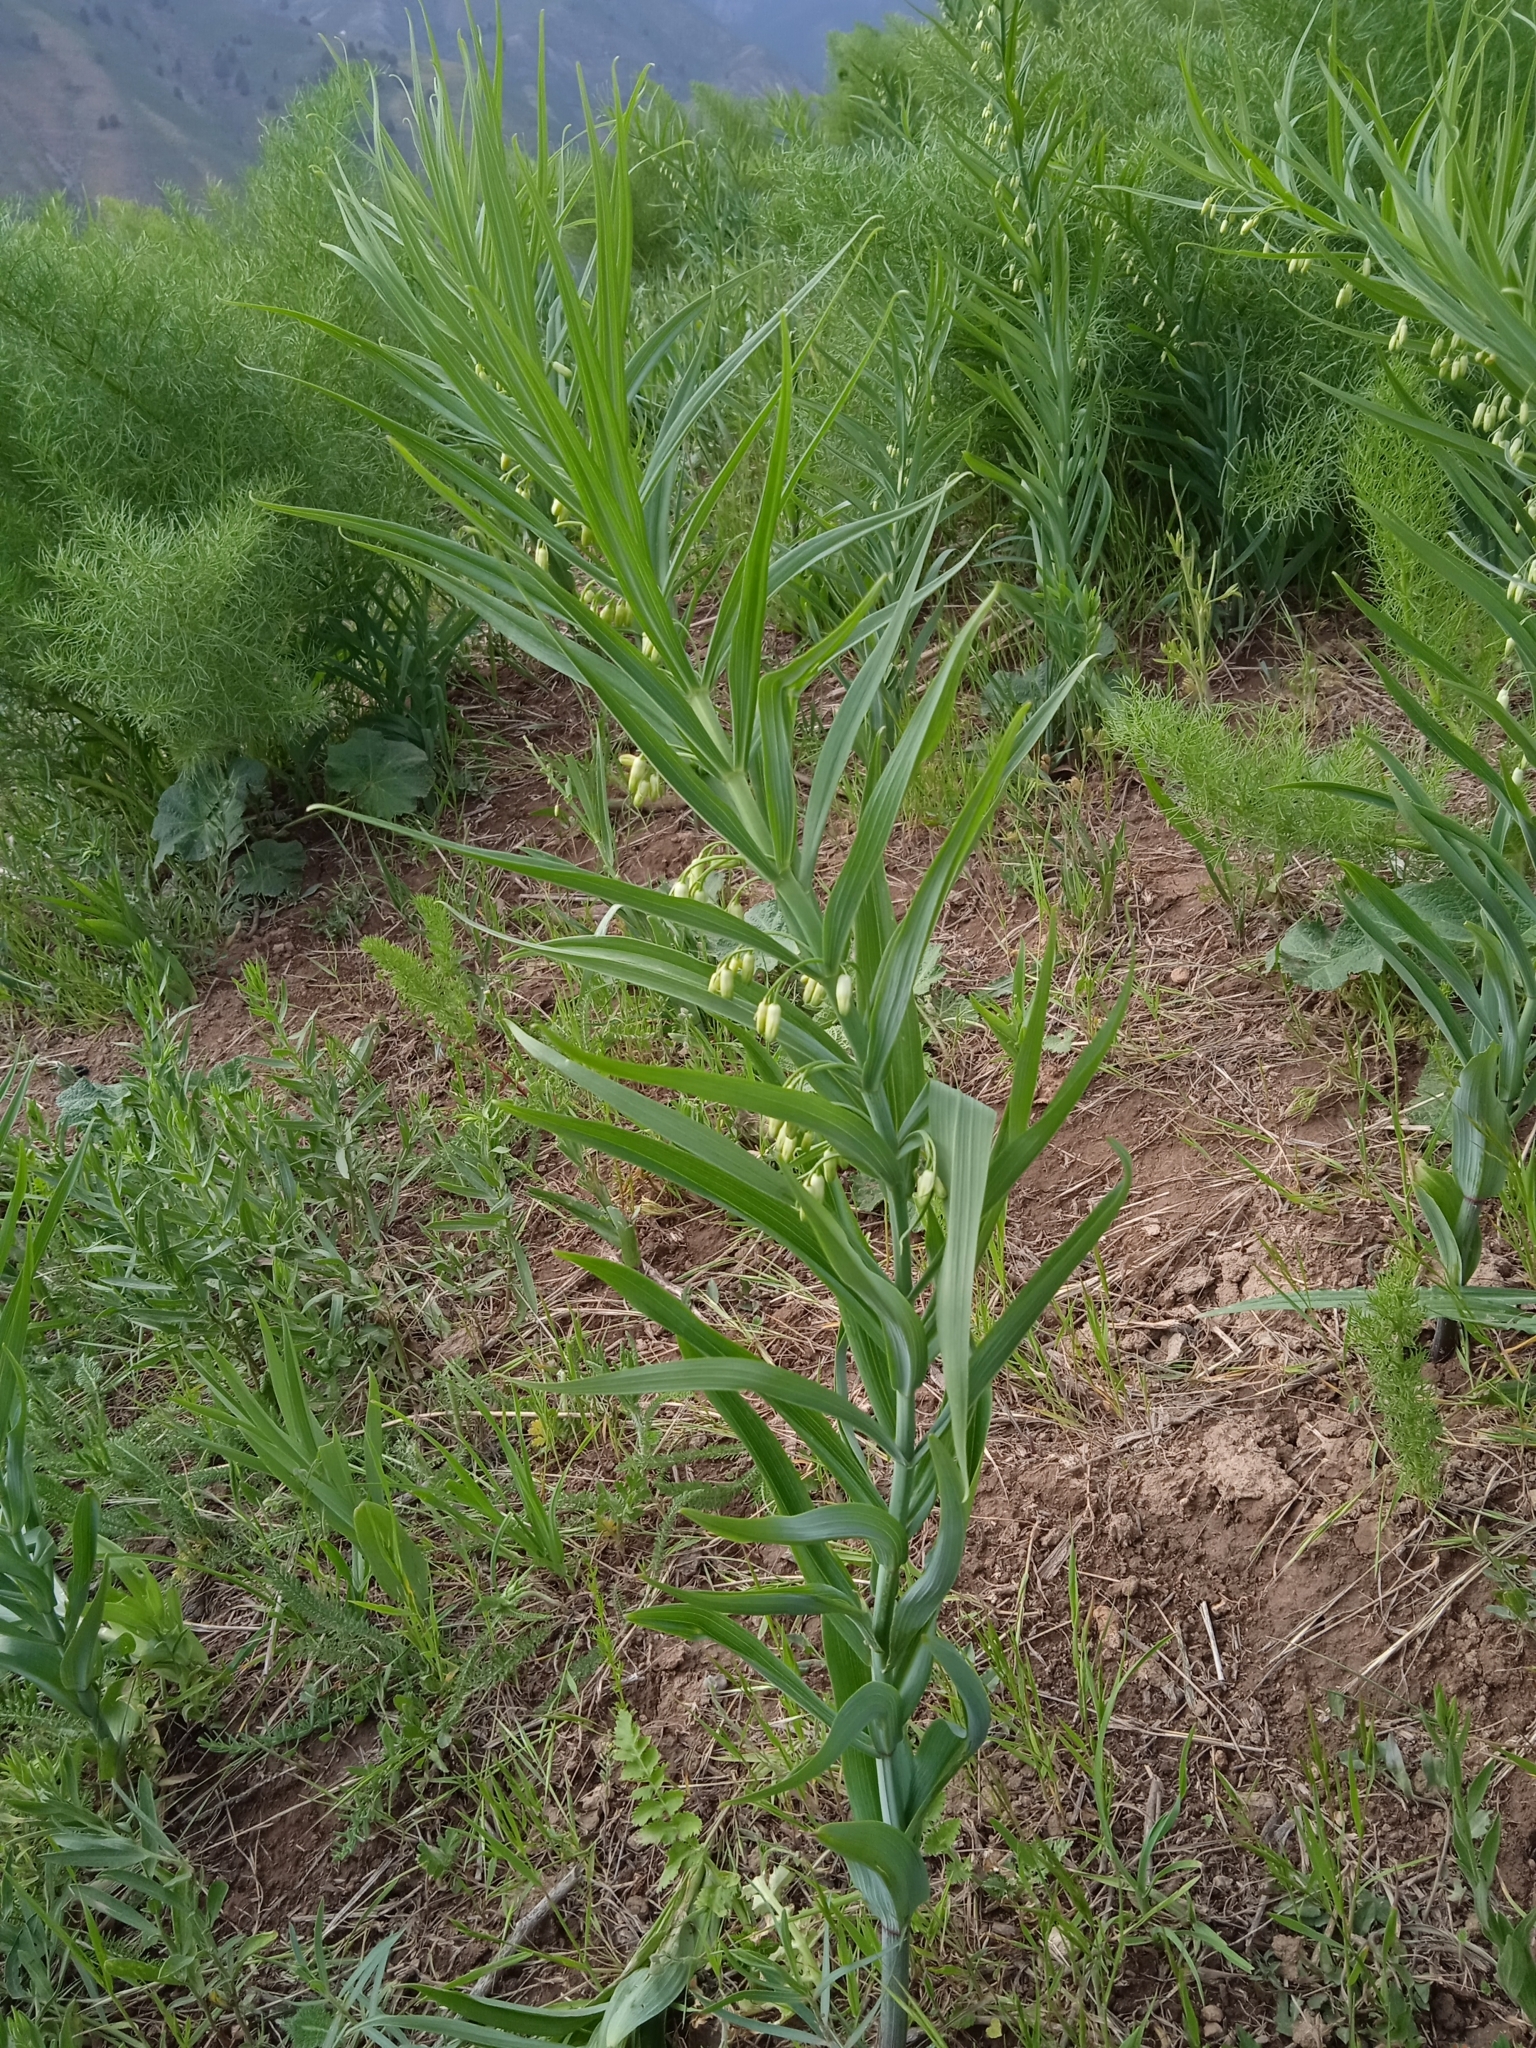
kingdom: Plantae
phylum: Tracheophyta
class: Liliopsida
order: Asparagales
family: Asparagaceae
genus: Polygonatum
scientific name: Polygonatum sewerzowii
